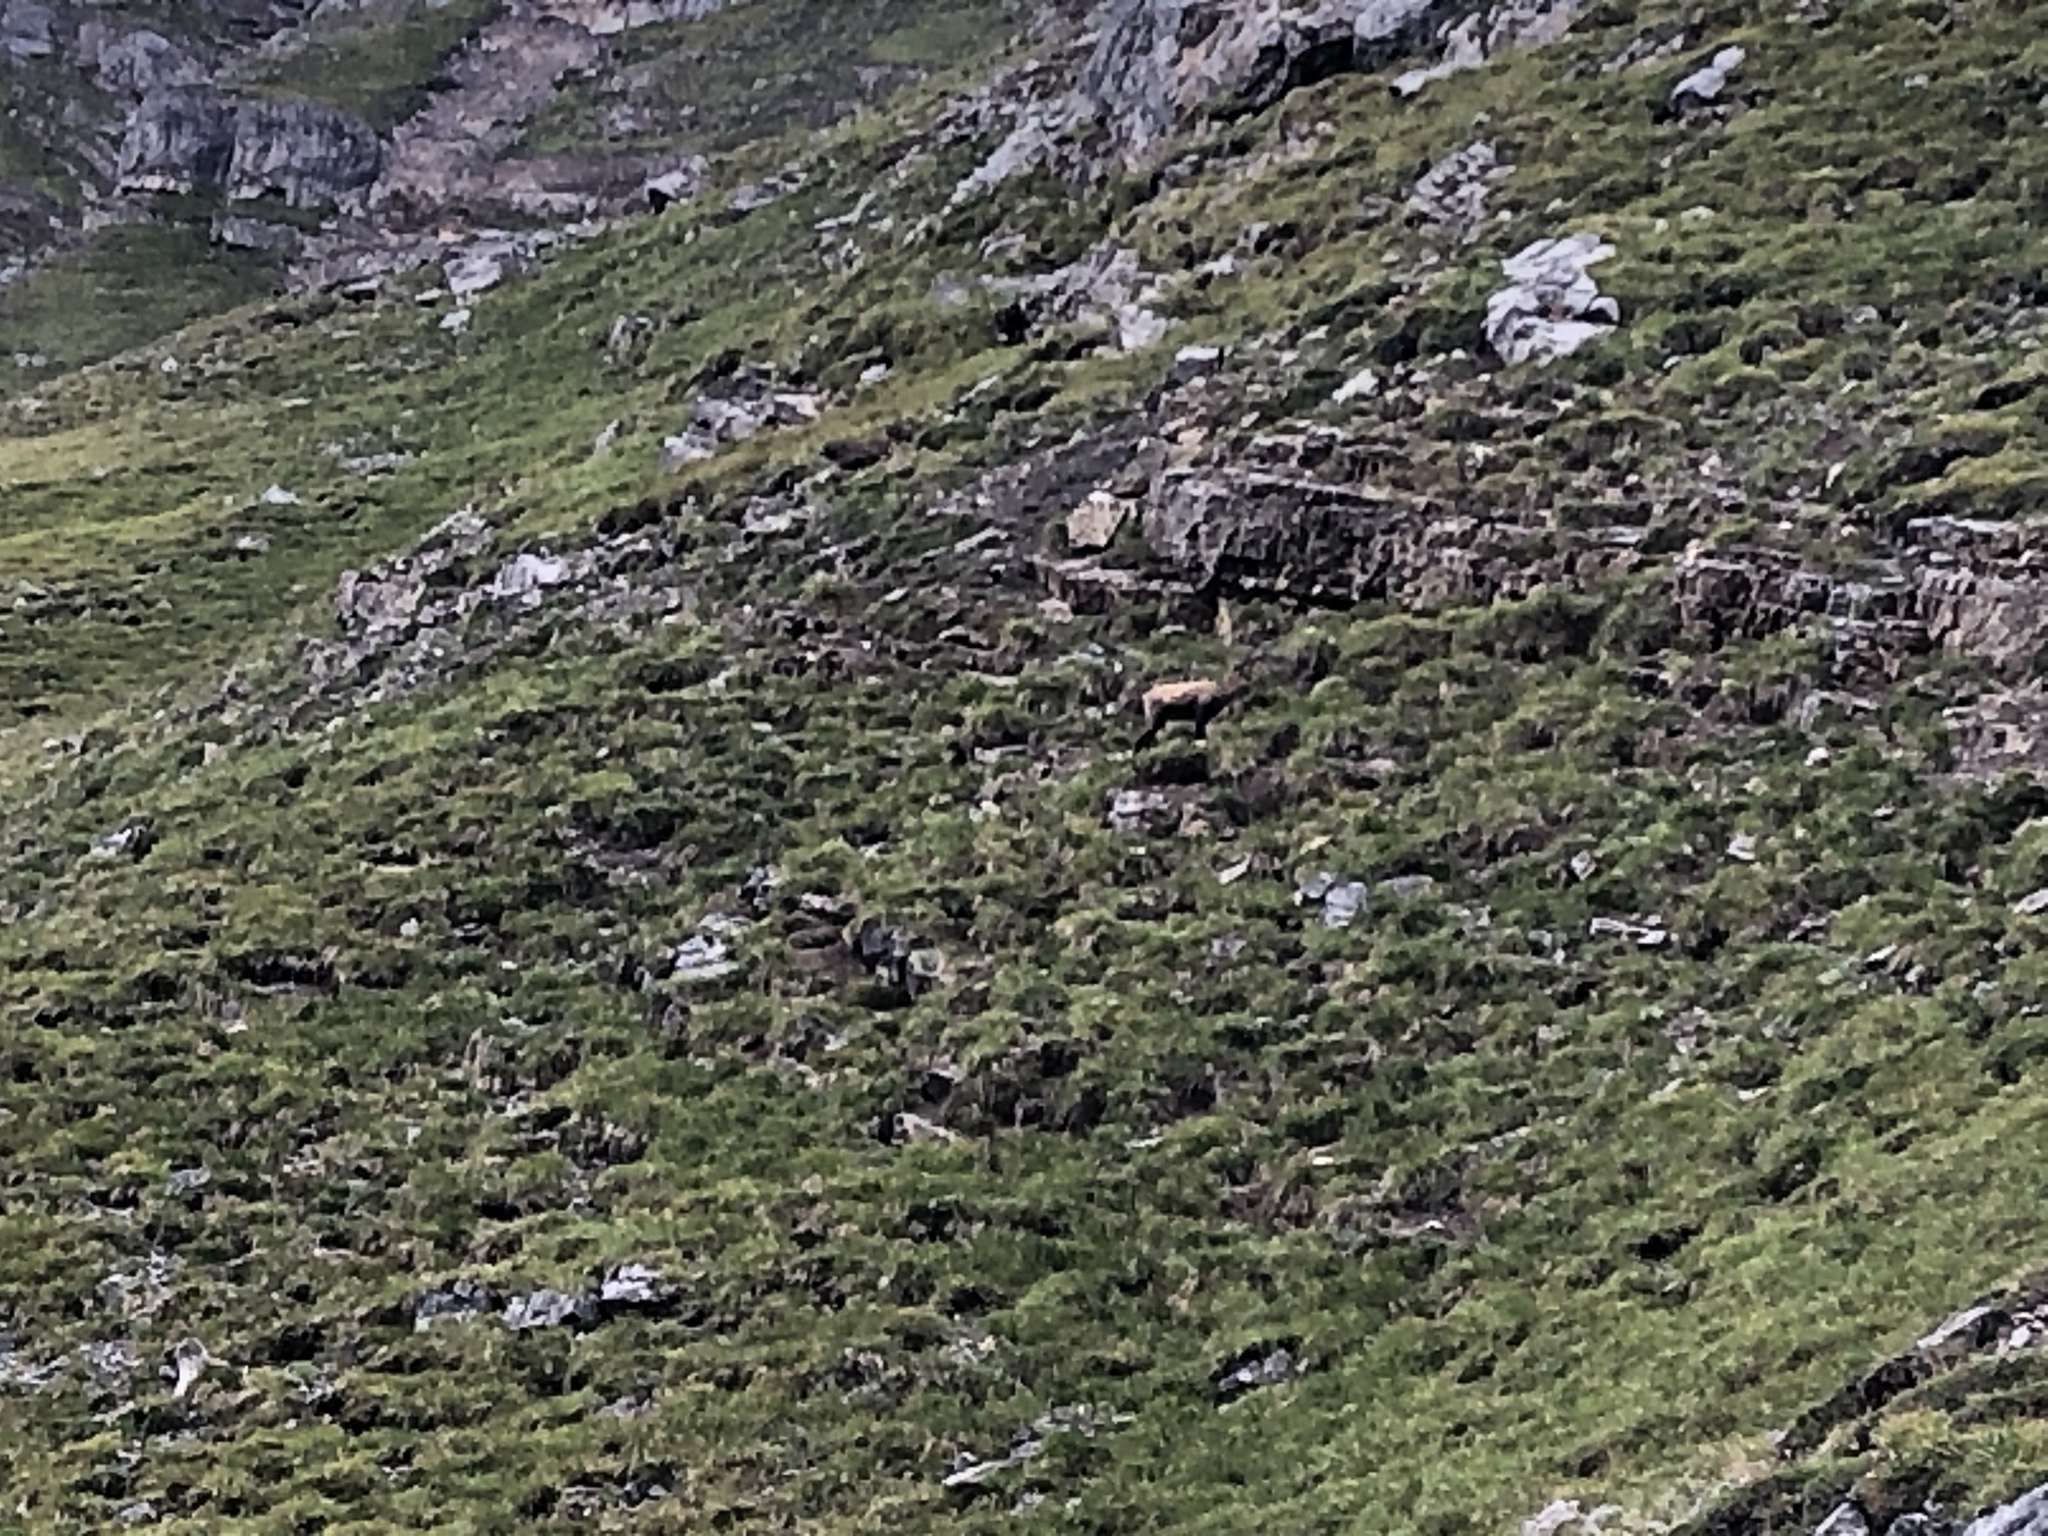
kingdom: Animalia
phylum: Chordata
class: Mammalia
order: Artiodactyla
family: Bovidae
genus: Rupicapra
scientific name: Rupicapra rupicapra
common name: Chamois
